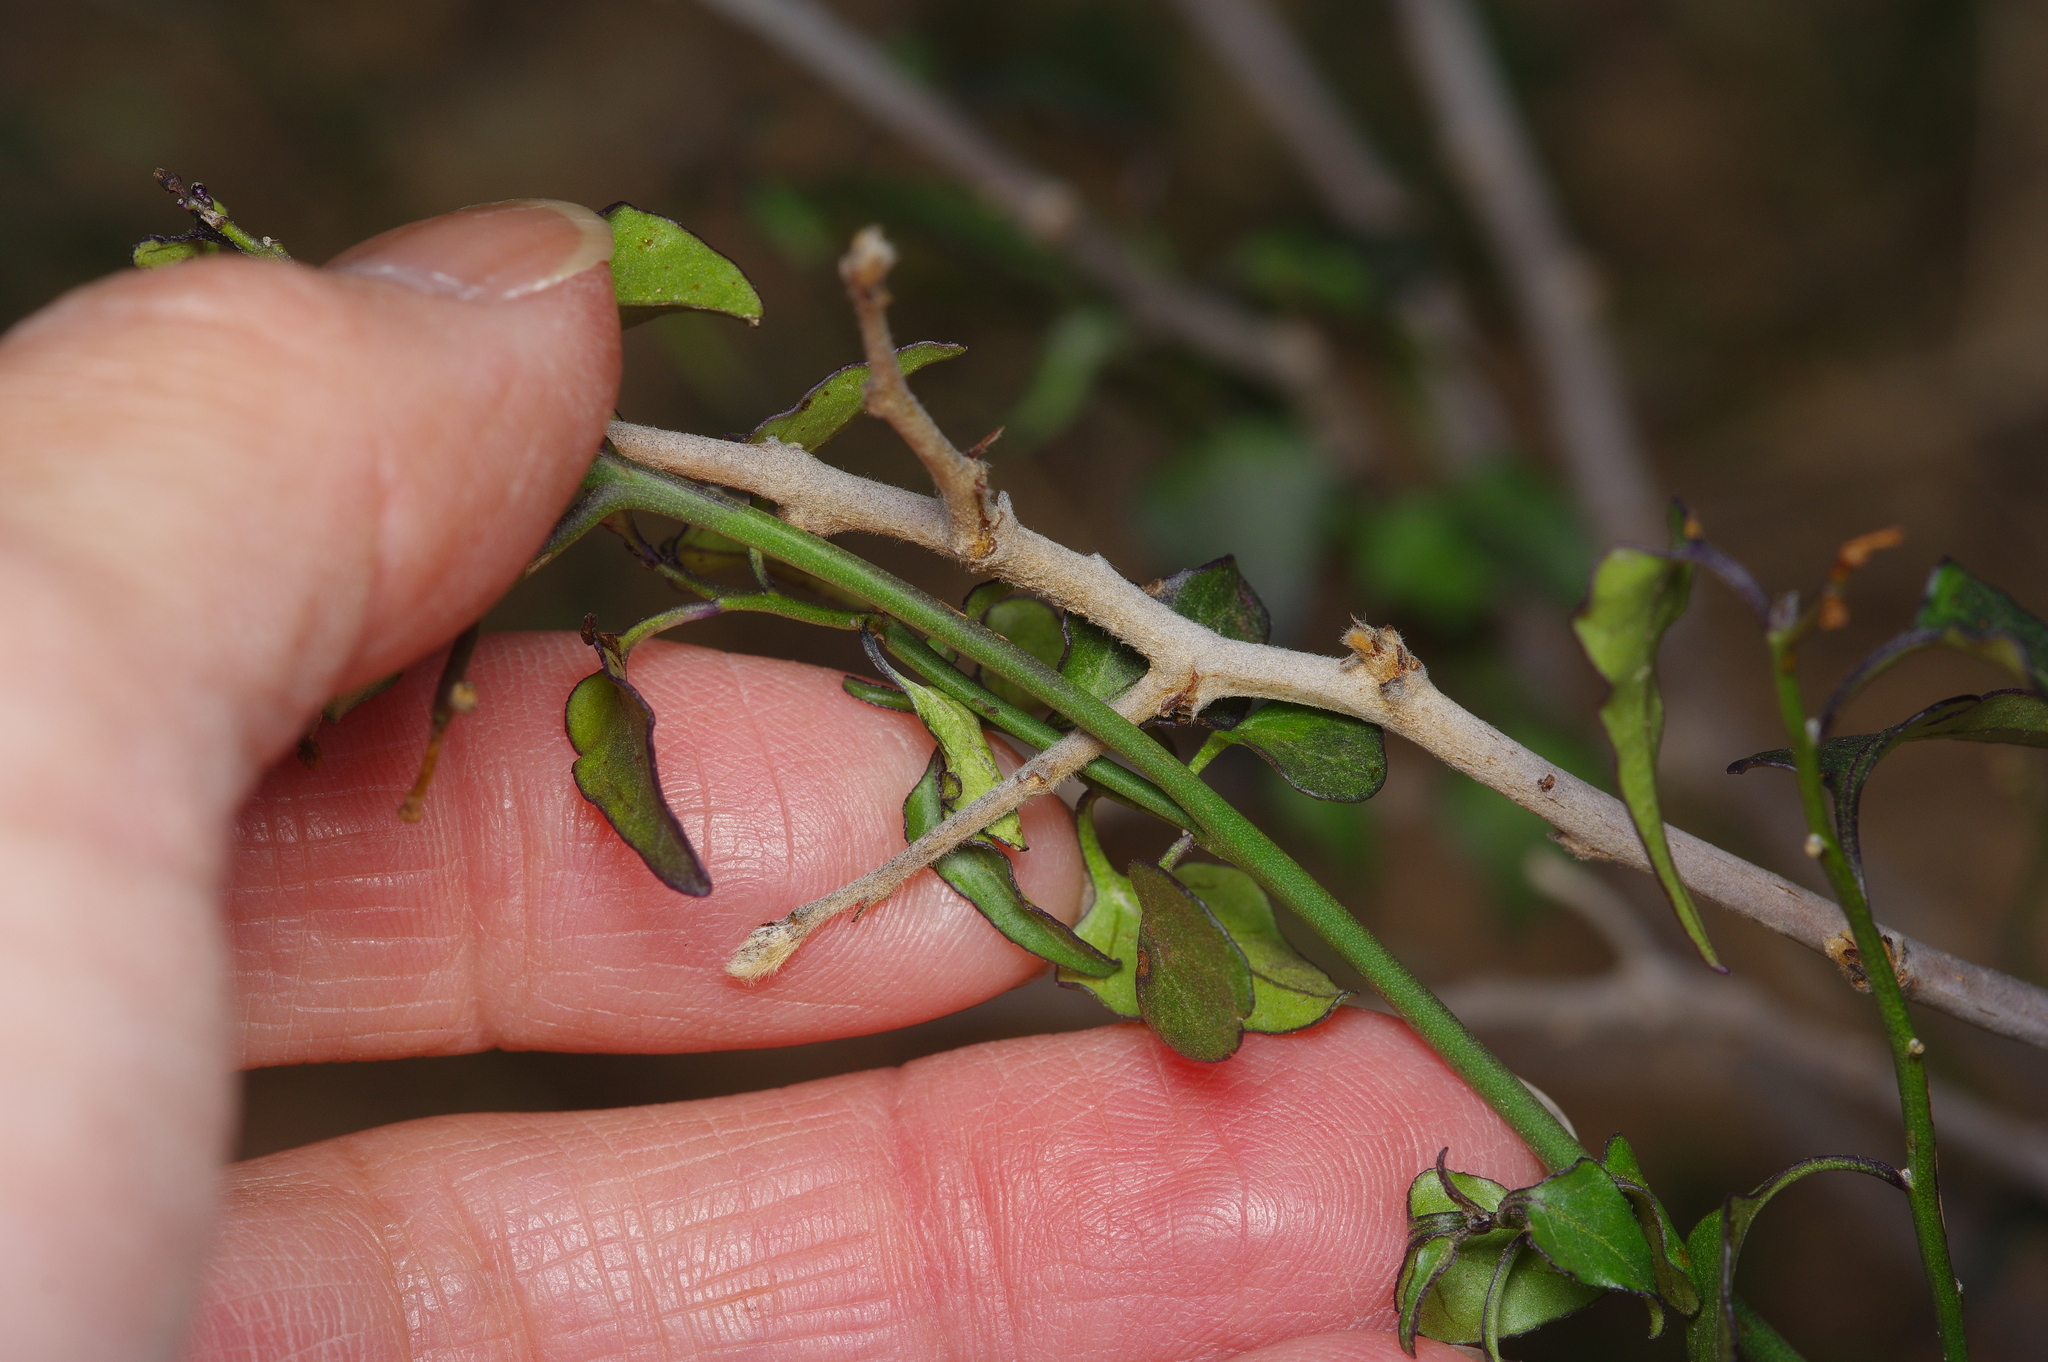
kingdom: Plantae
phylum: Tracheophyta
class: Magnoliopsida
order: Solanales
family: Solanaceae
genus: Solanum
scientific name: Solanum triquetrum
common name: Texas nightshade
